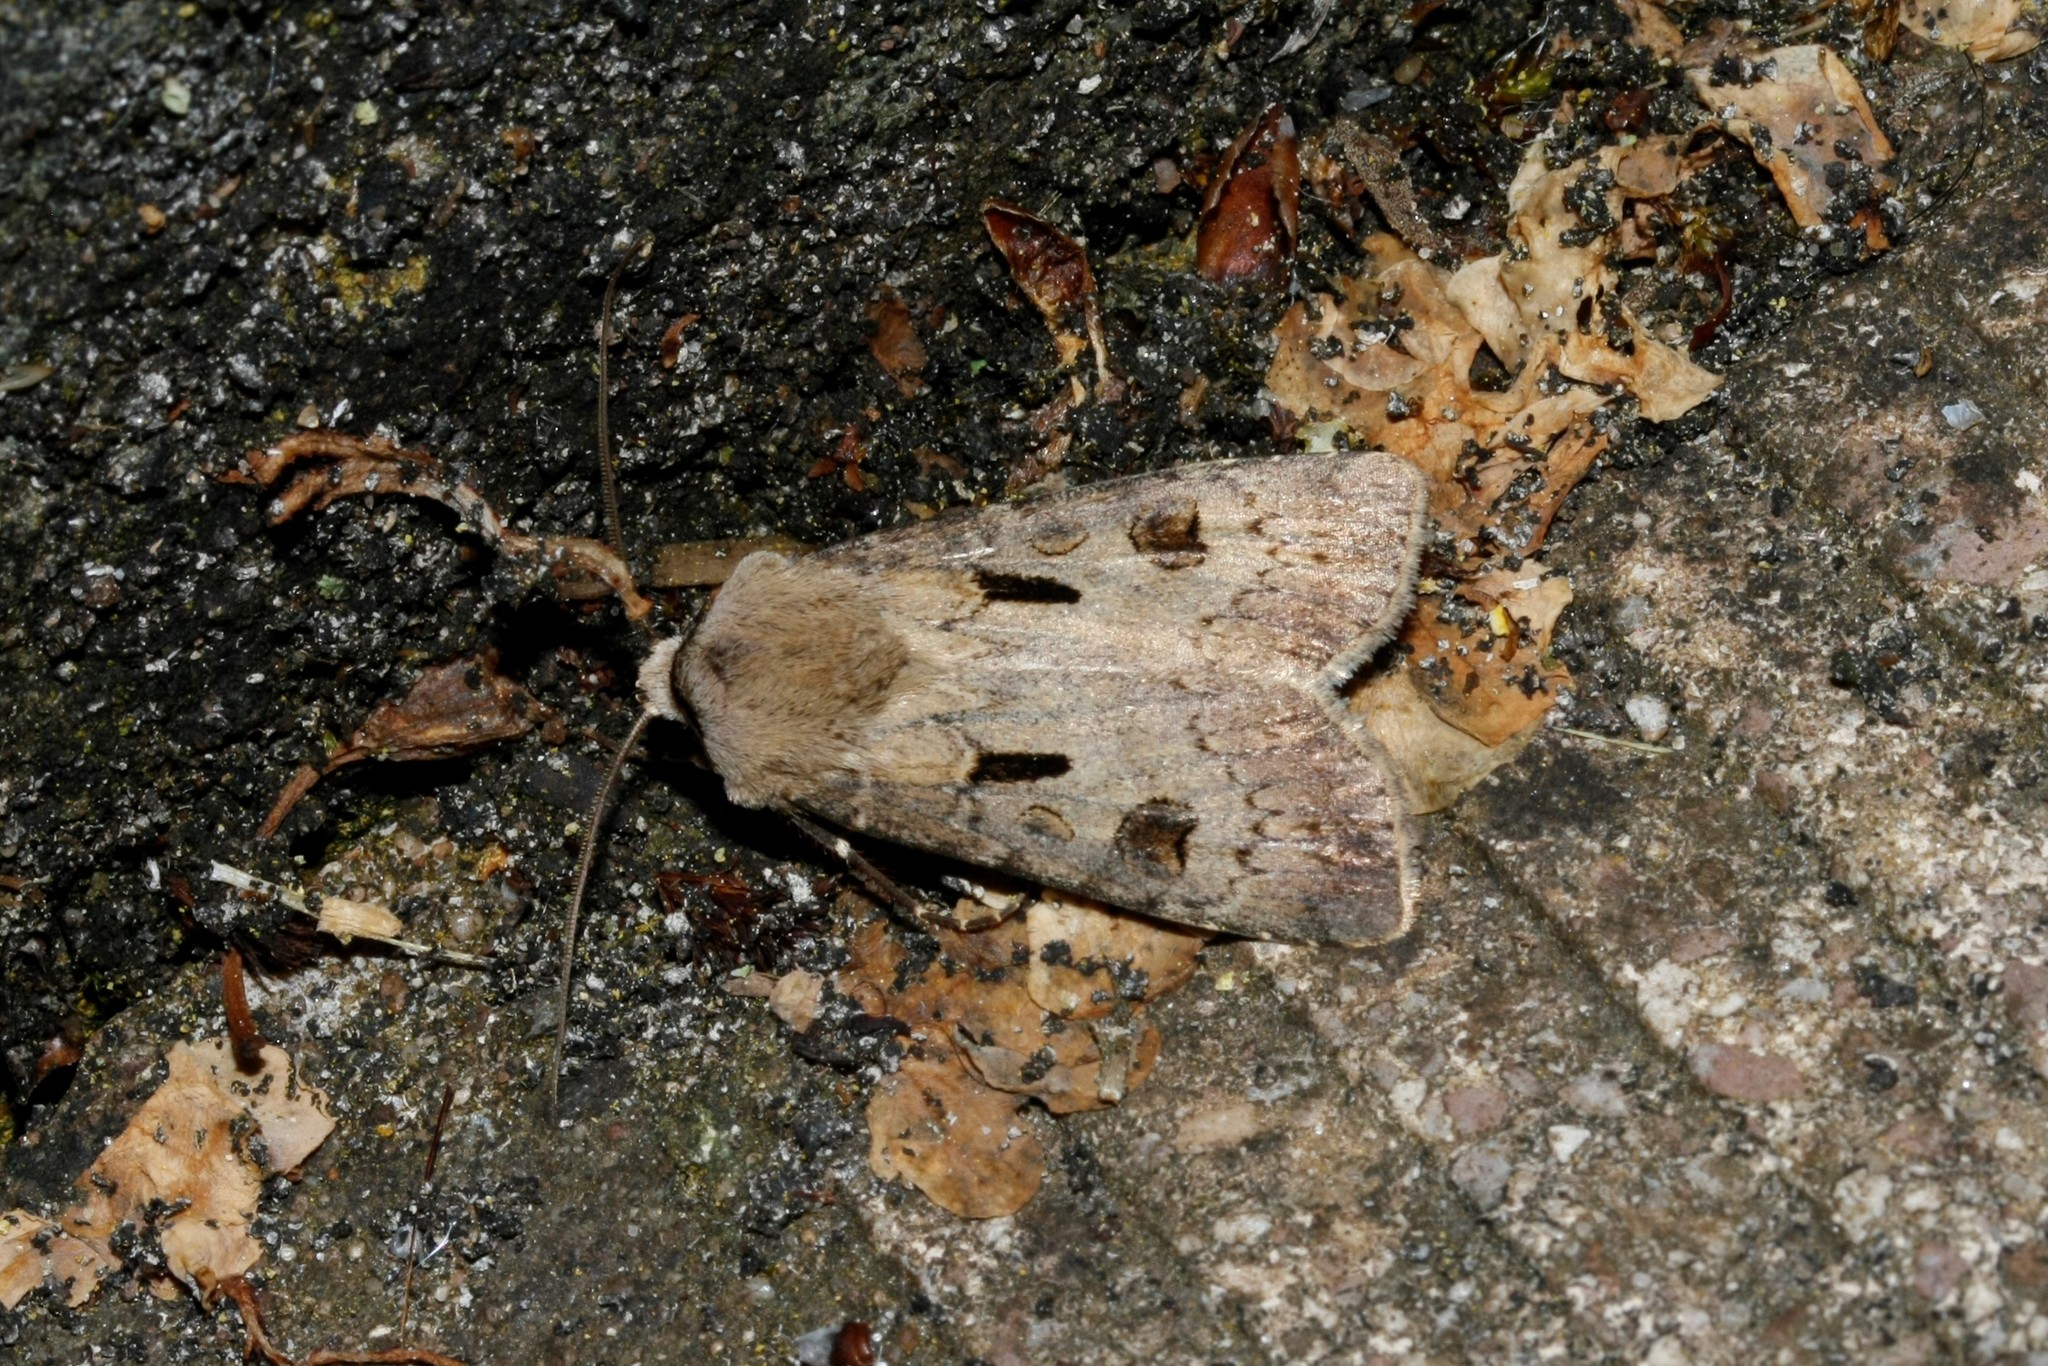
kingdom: Animalia
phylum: Arthropoda
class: Insecta
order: Lepidoptera
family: Noctuidae
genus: Agrotis
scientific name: Agrotis exclamationis
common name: Heart and dart
